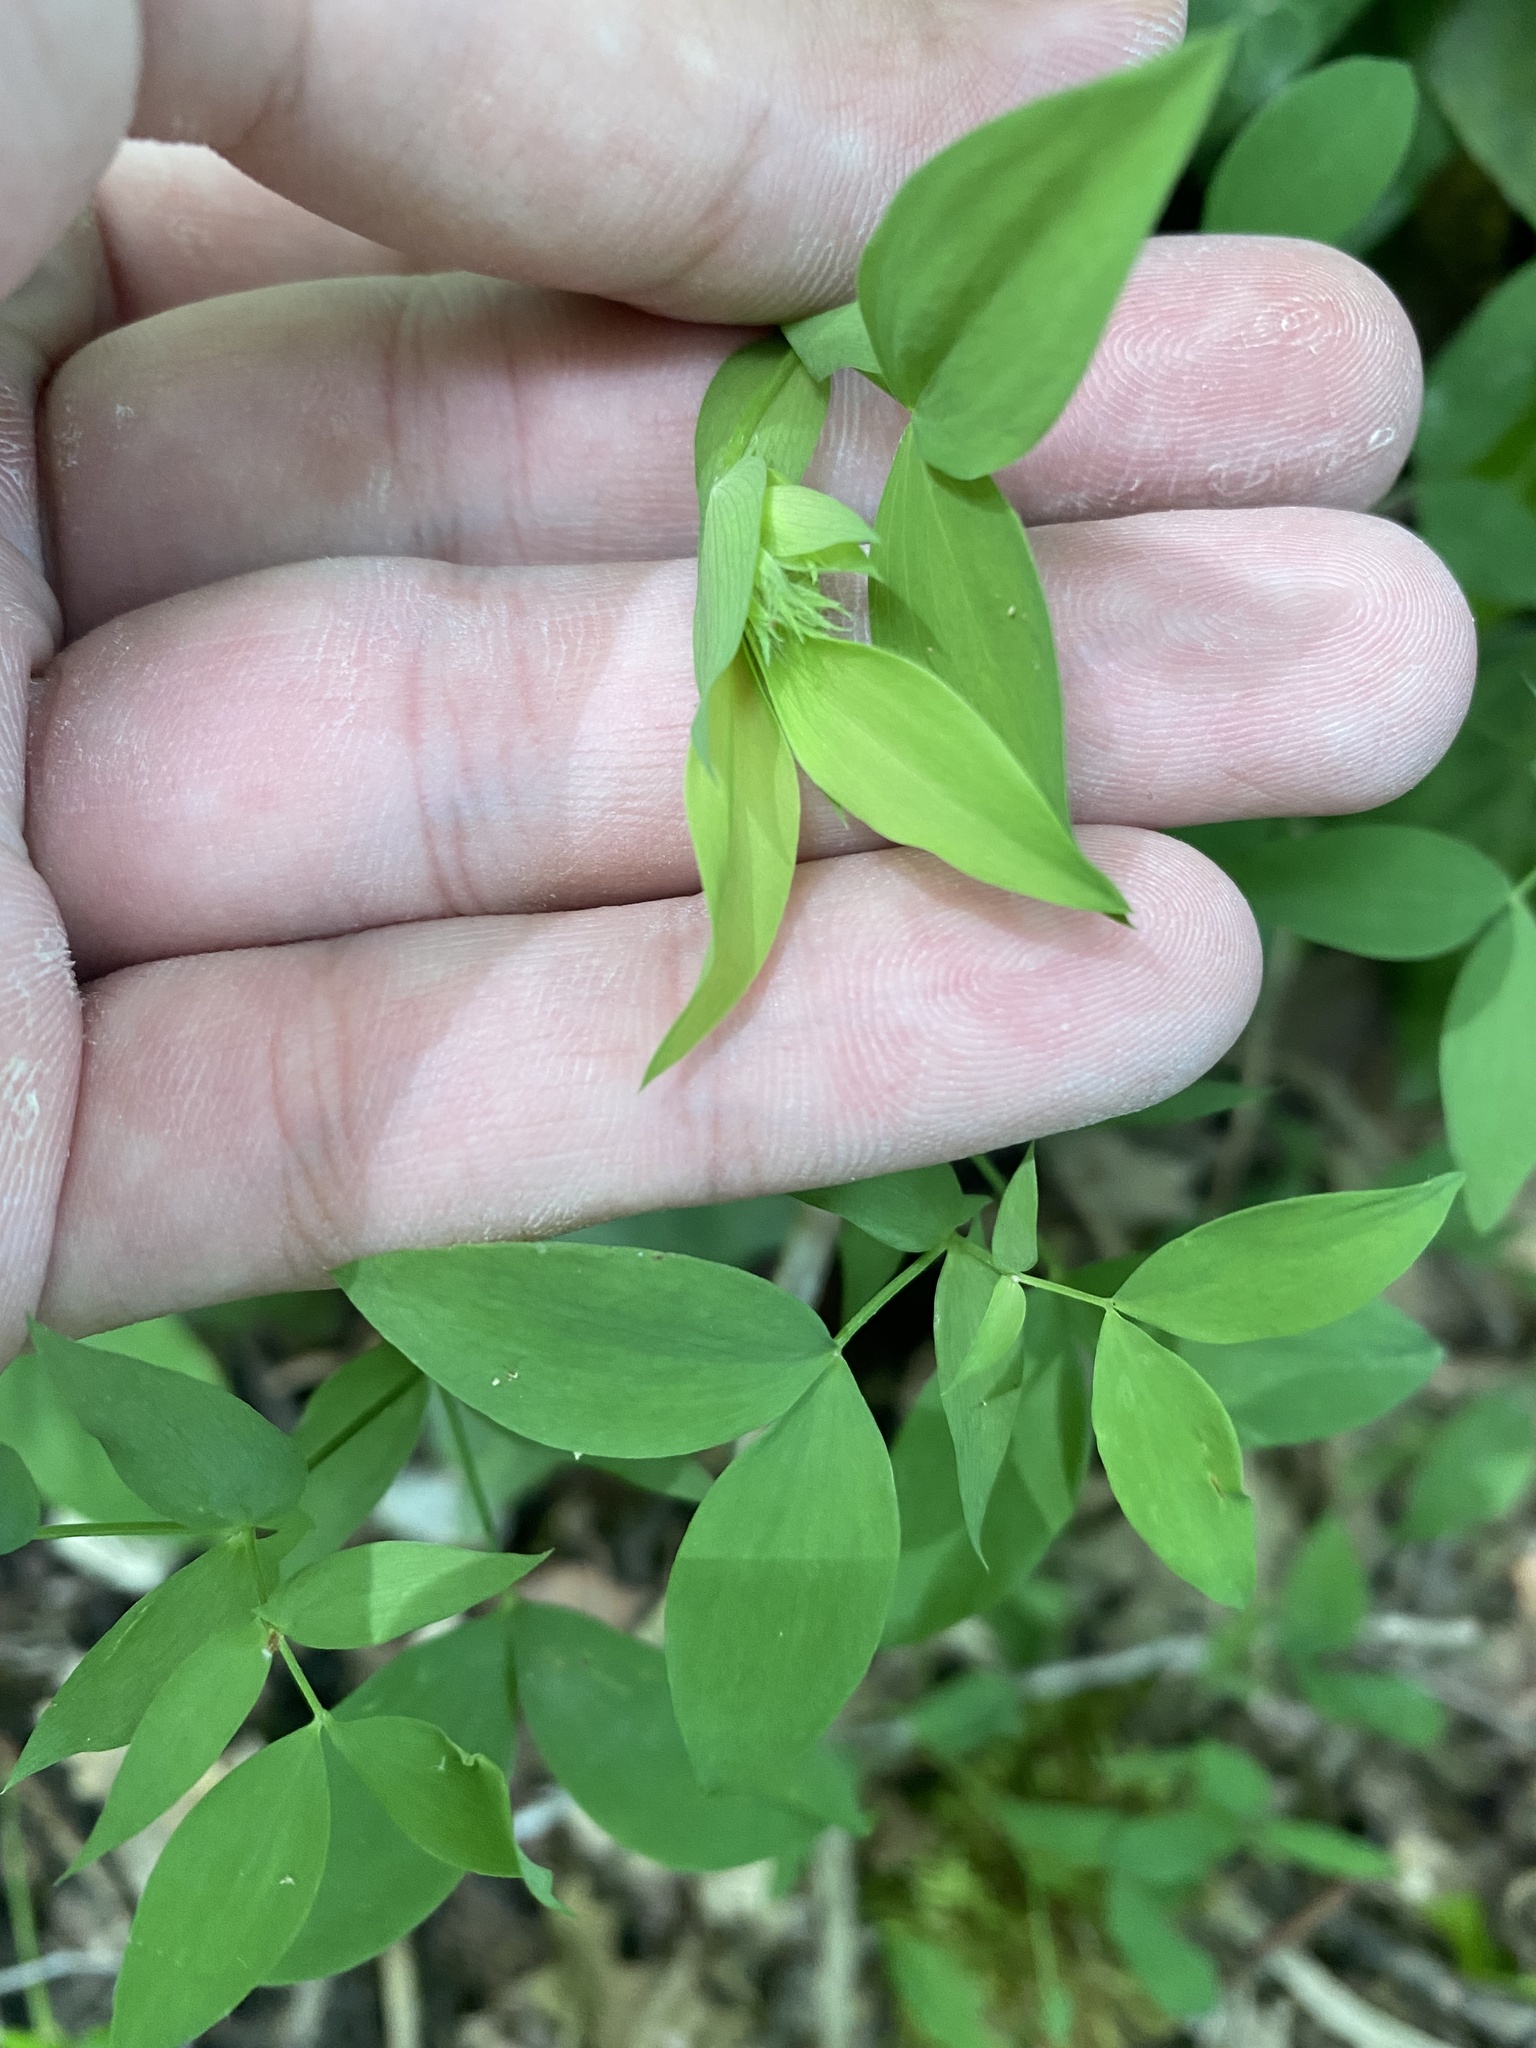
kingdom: Plantae
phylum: Tracheophyta
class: Magnoliopsida
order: Fabales
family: Fabaceae
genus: Lathyrus
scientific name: Lathyrus laxiflorus
